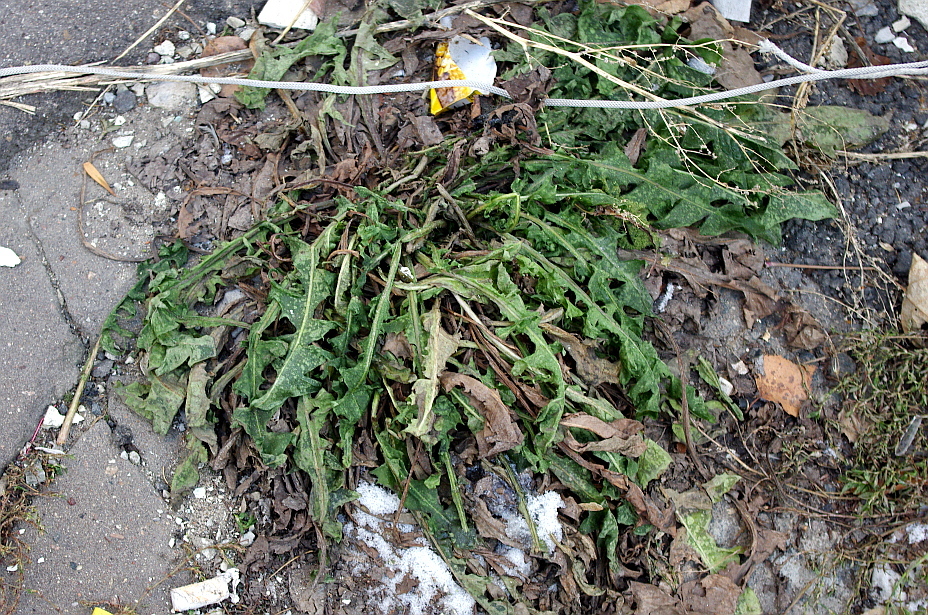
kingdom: Plantae
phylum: Tracheophyta
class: Magnoliopsida
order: Asterales
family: Asteraceae
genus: Taraxacum
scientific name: Taraxacum officinale
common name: Common dandelion
